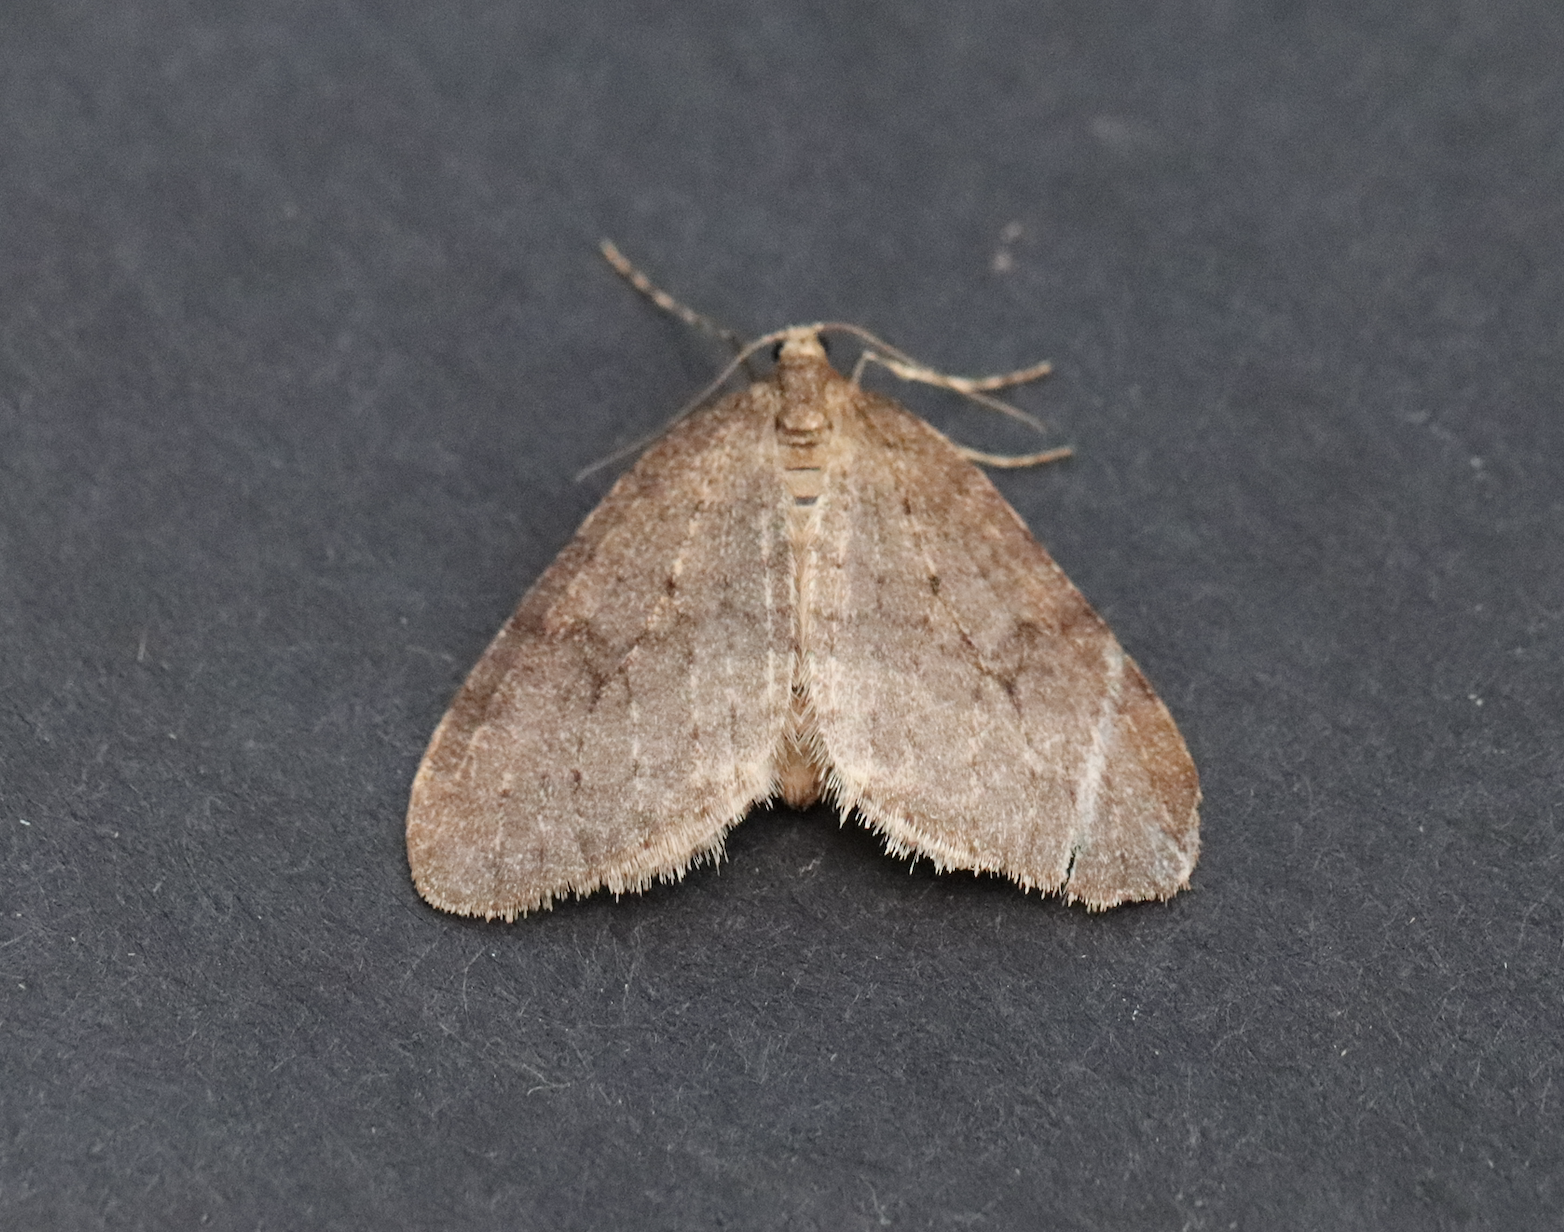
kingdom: Animalia
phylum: Arthropoda
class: Insecta
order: Lepidoptera
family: Geometridae
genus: Operophtera
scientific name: Operophtera brumata
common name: Winter moth
